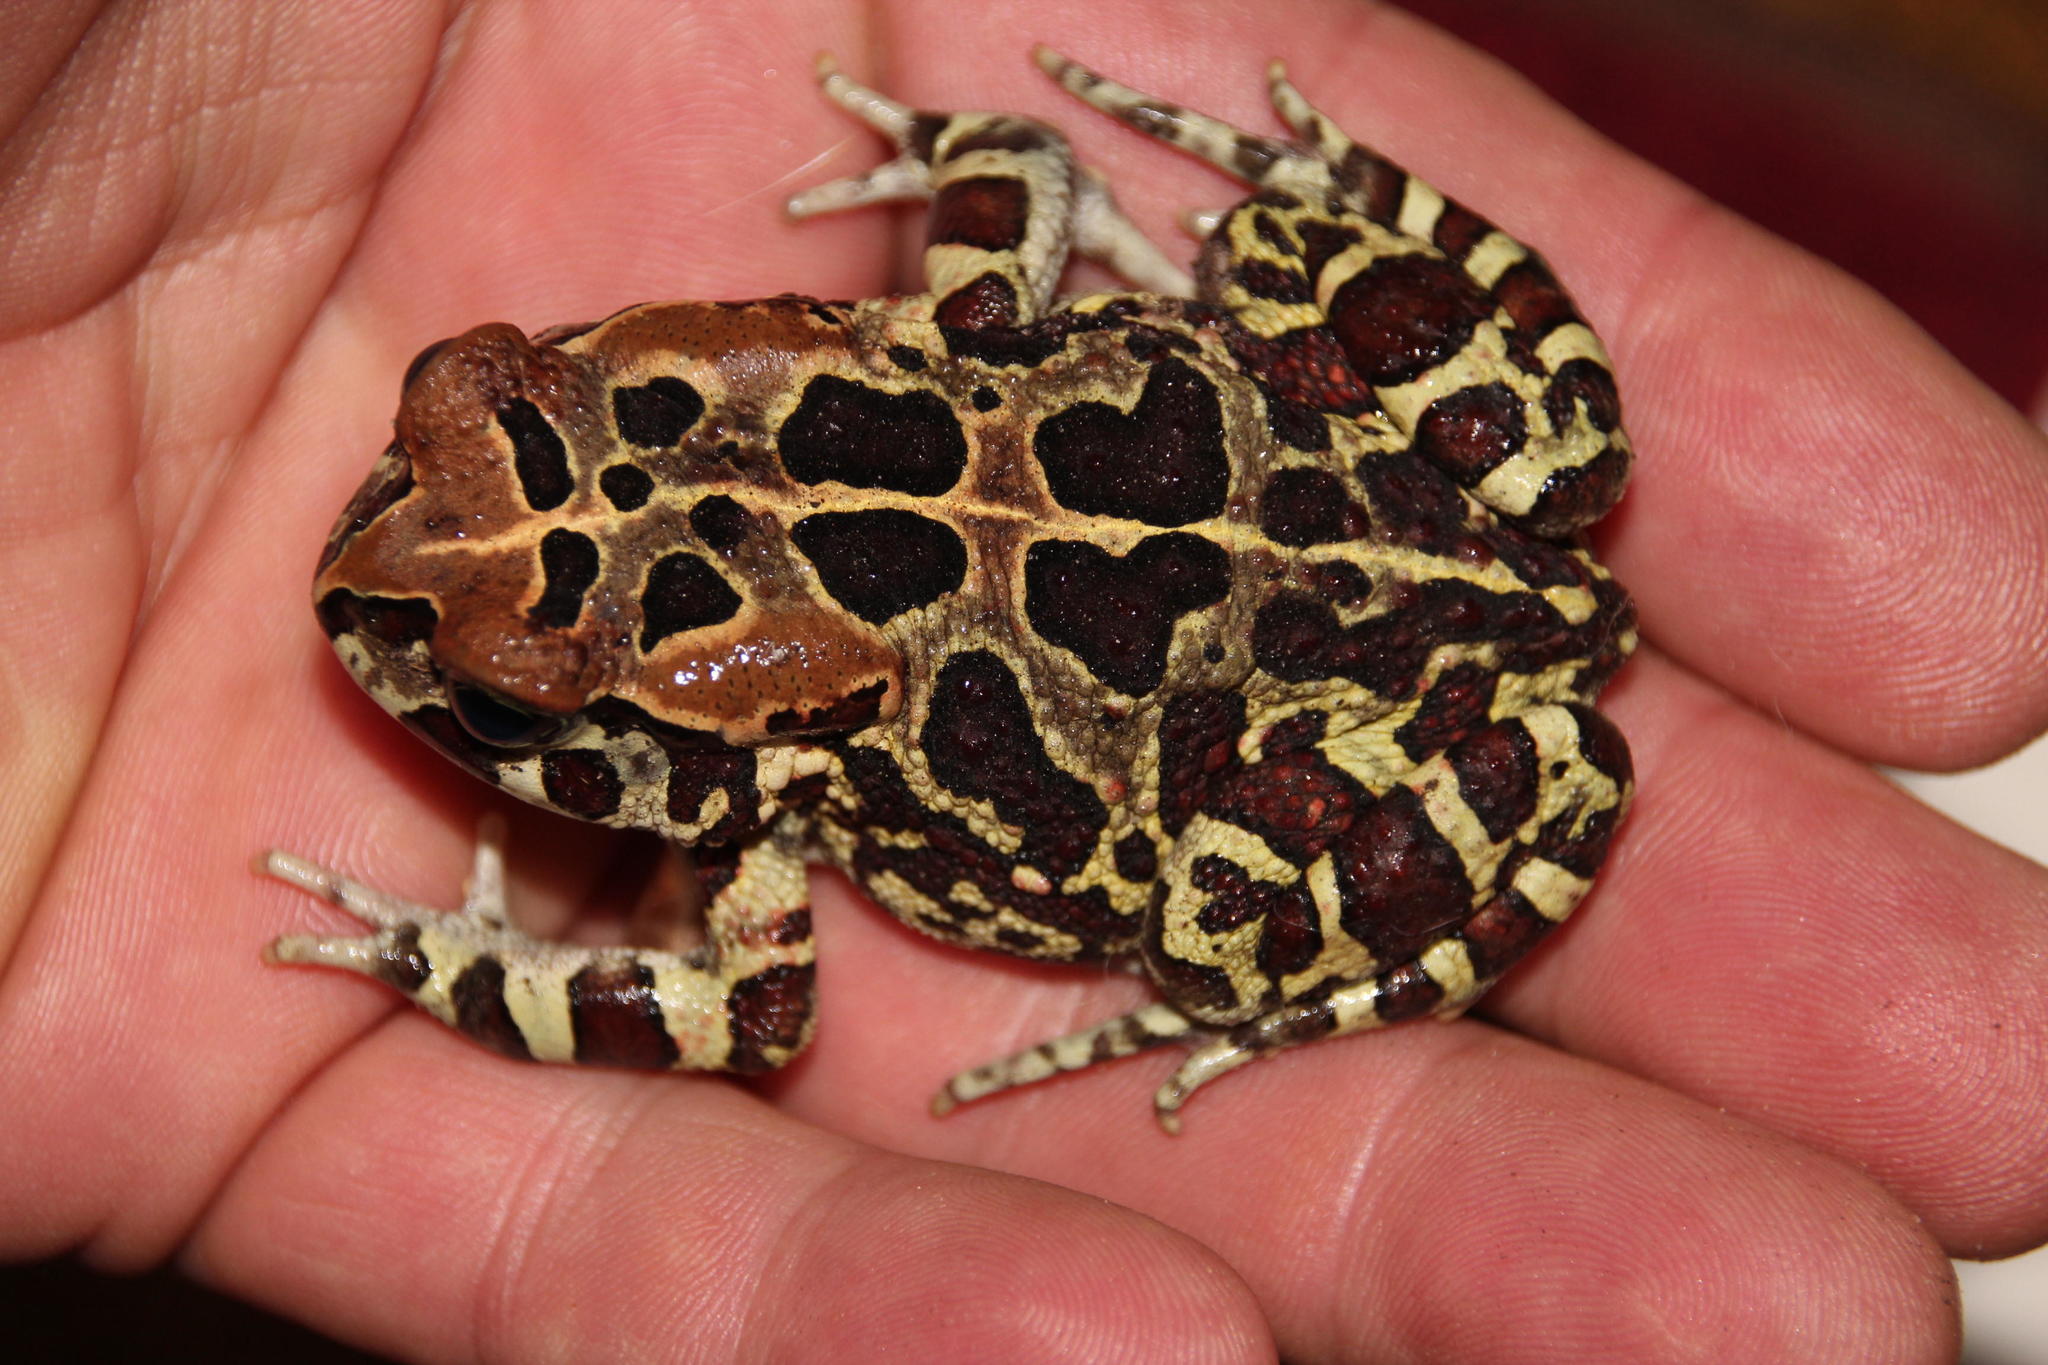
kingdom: Animalia
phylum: Chordata
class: Amphibia
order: Anura
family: Bufonidae
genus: Sclerophrys
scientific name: Sclerophrys pantherina
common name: Panther toad
